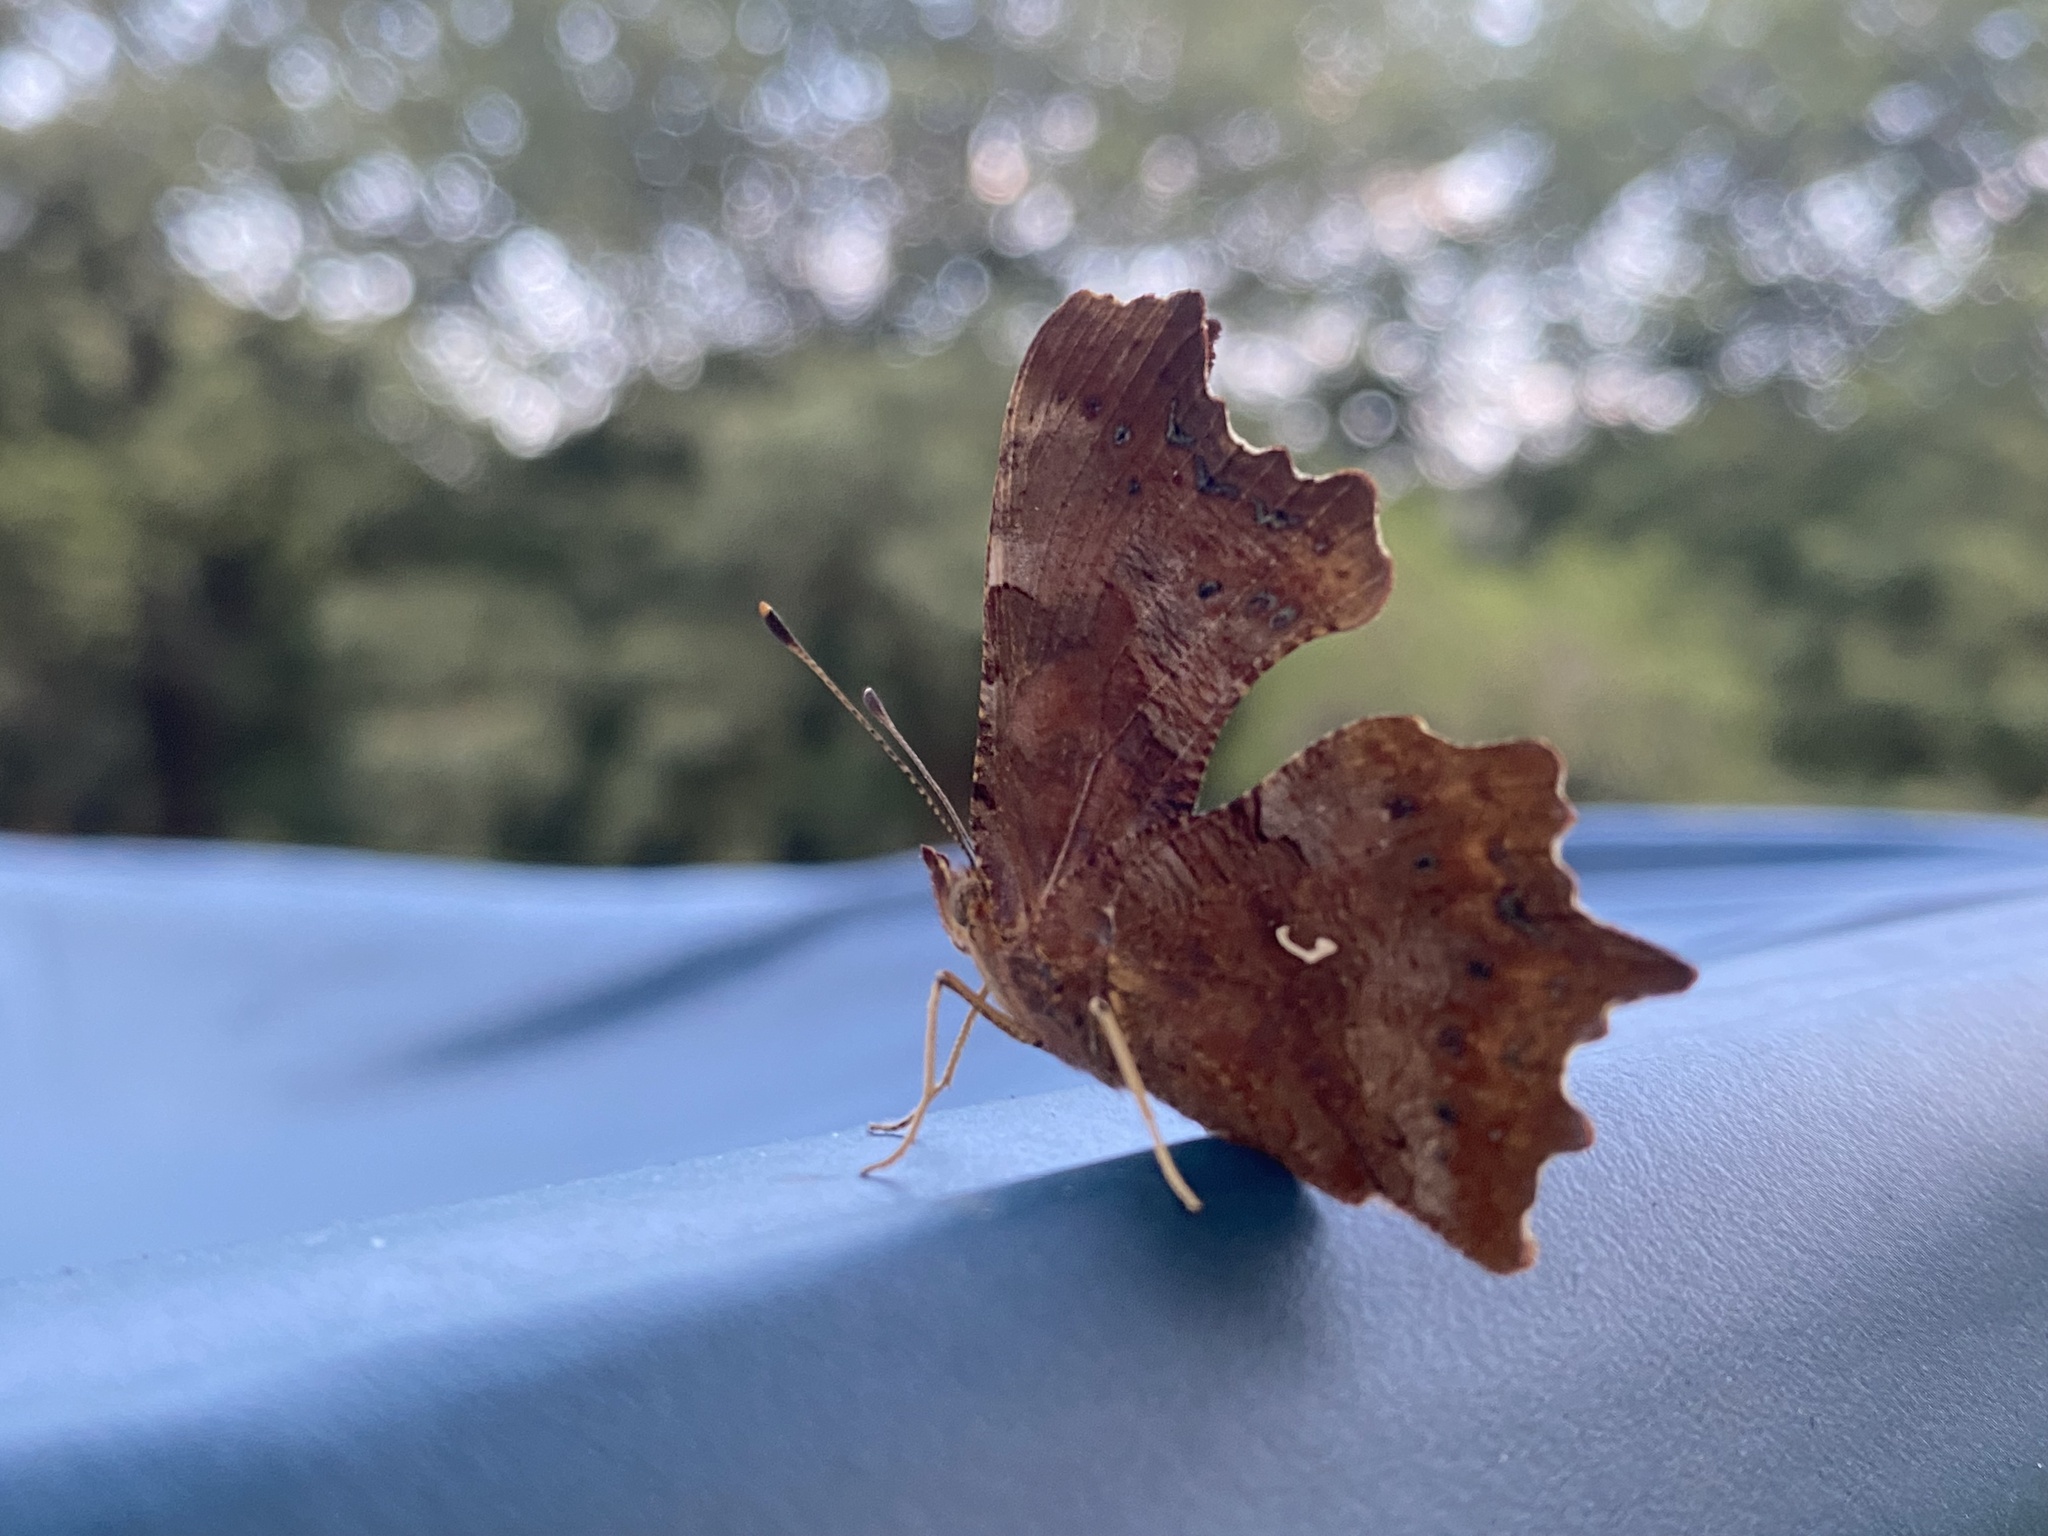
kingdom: Animalia
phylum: Arthropoda
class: Insecta
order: Lepidoptera
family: Nymphalidae
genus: Polygonia
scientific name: Polygonia c-album
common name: Comma
